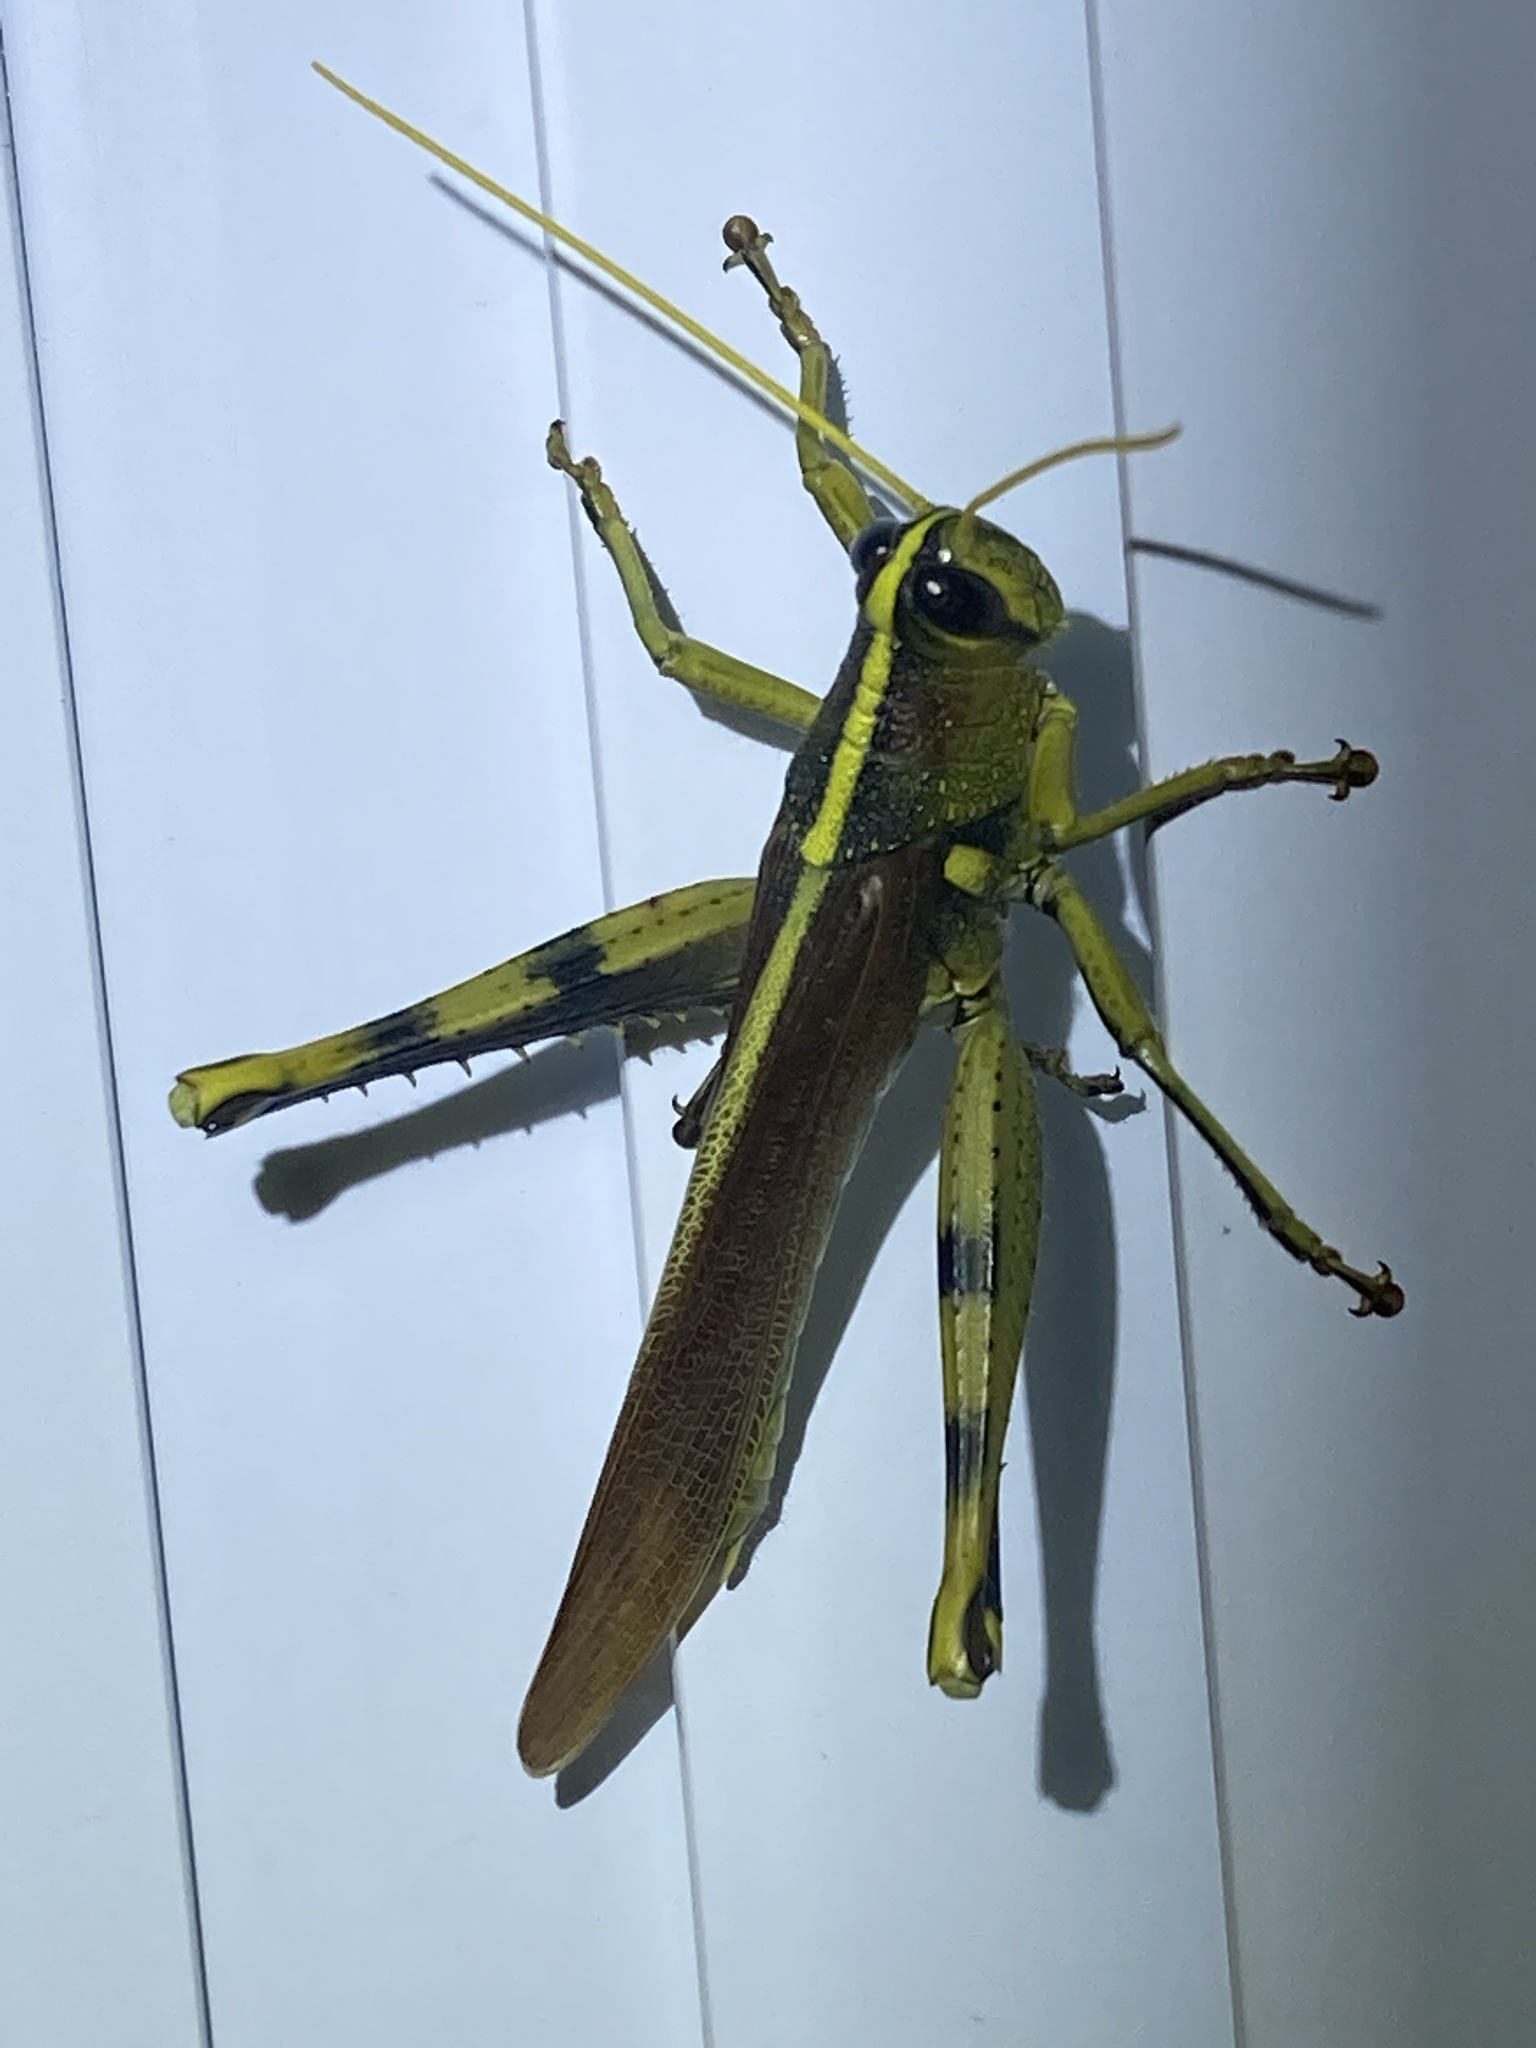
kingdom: Animalia
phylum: Arthropoda
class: Insecta
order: Orthoptera
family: Acrididae
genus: Schistocerca
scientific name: Schistocerca obscura
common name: Obscure bird grasshopper
